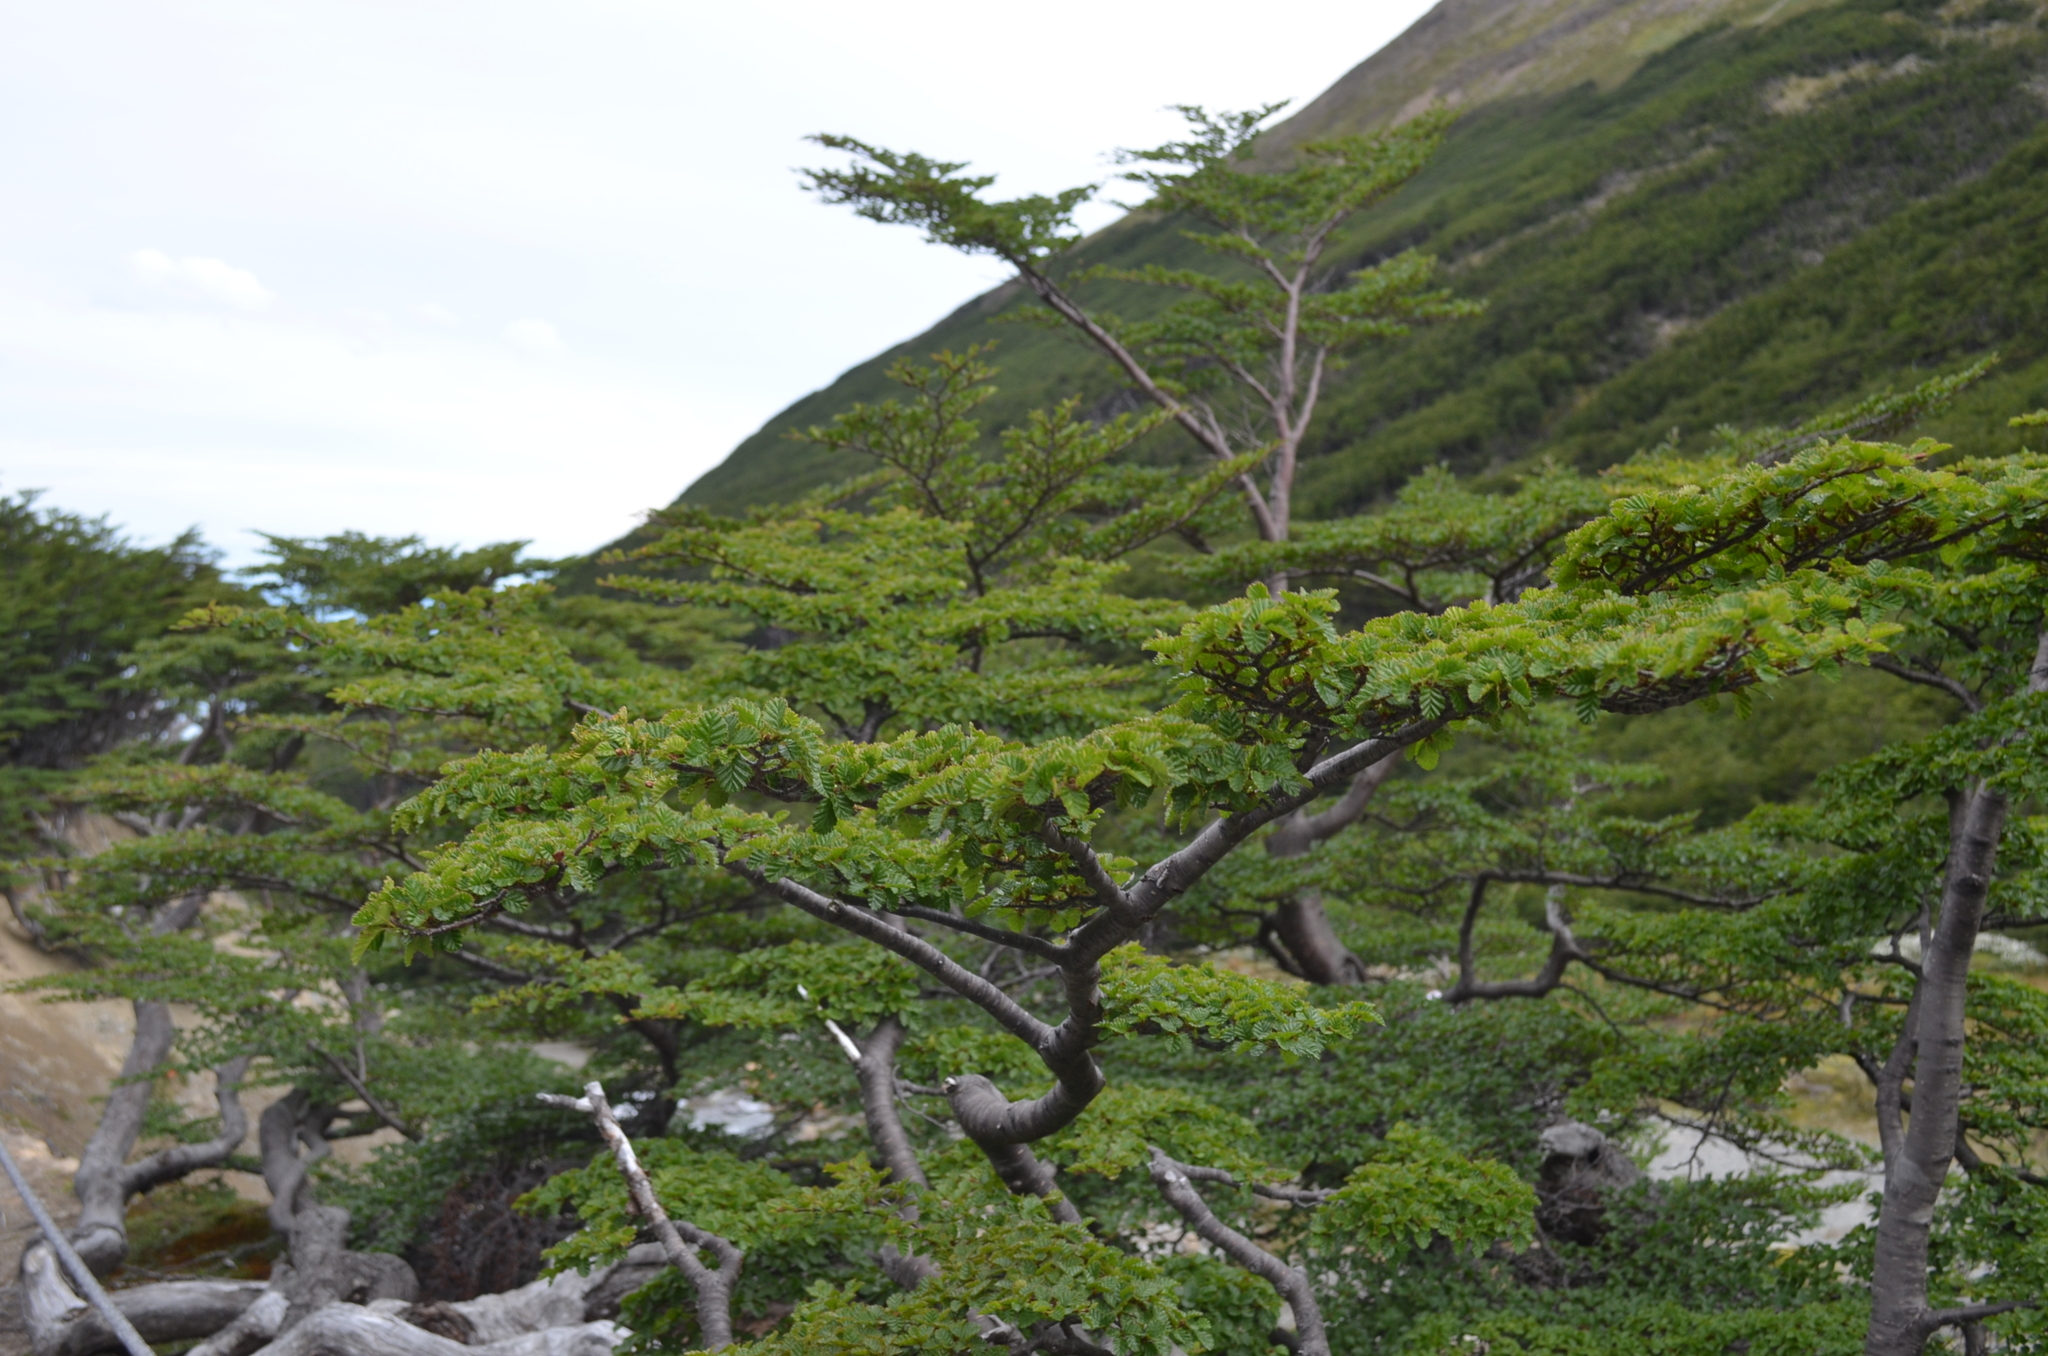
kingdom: Plantae
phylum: Tracheophyta
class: Magnoliopsida
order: Fagales
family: Nothofagaceae
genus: Nothofagus
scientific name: Nothofagus pumilio
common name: Lenga beech
